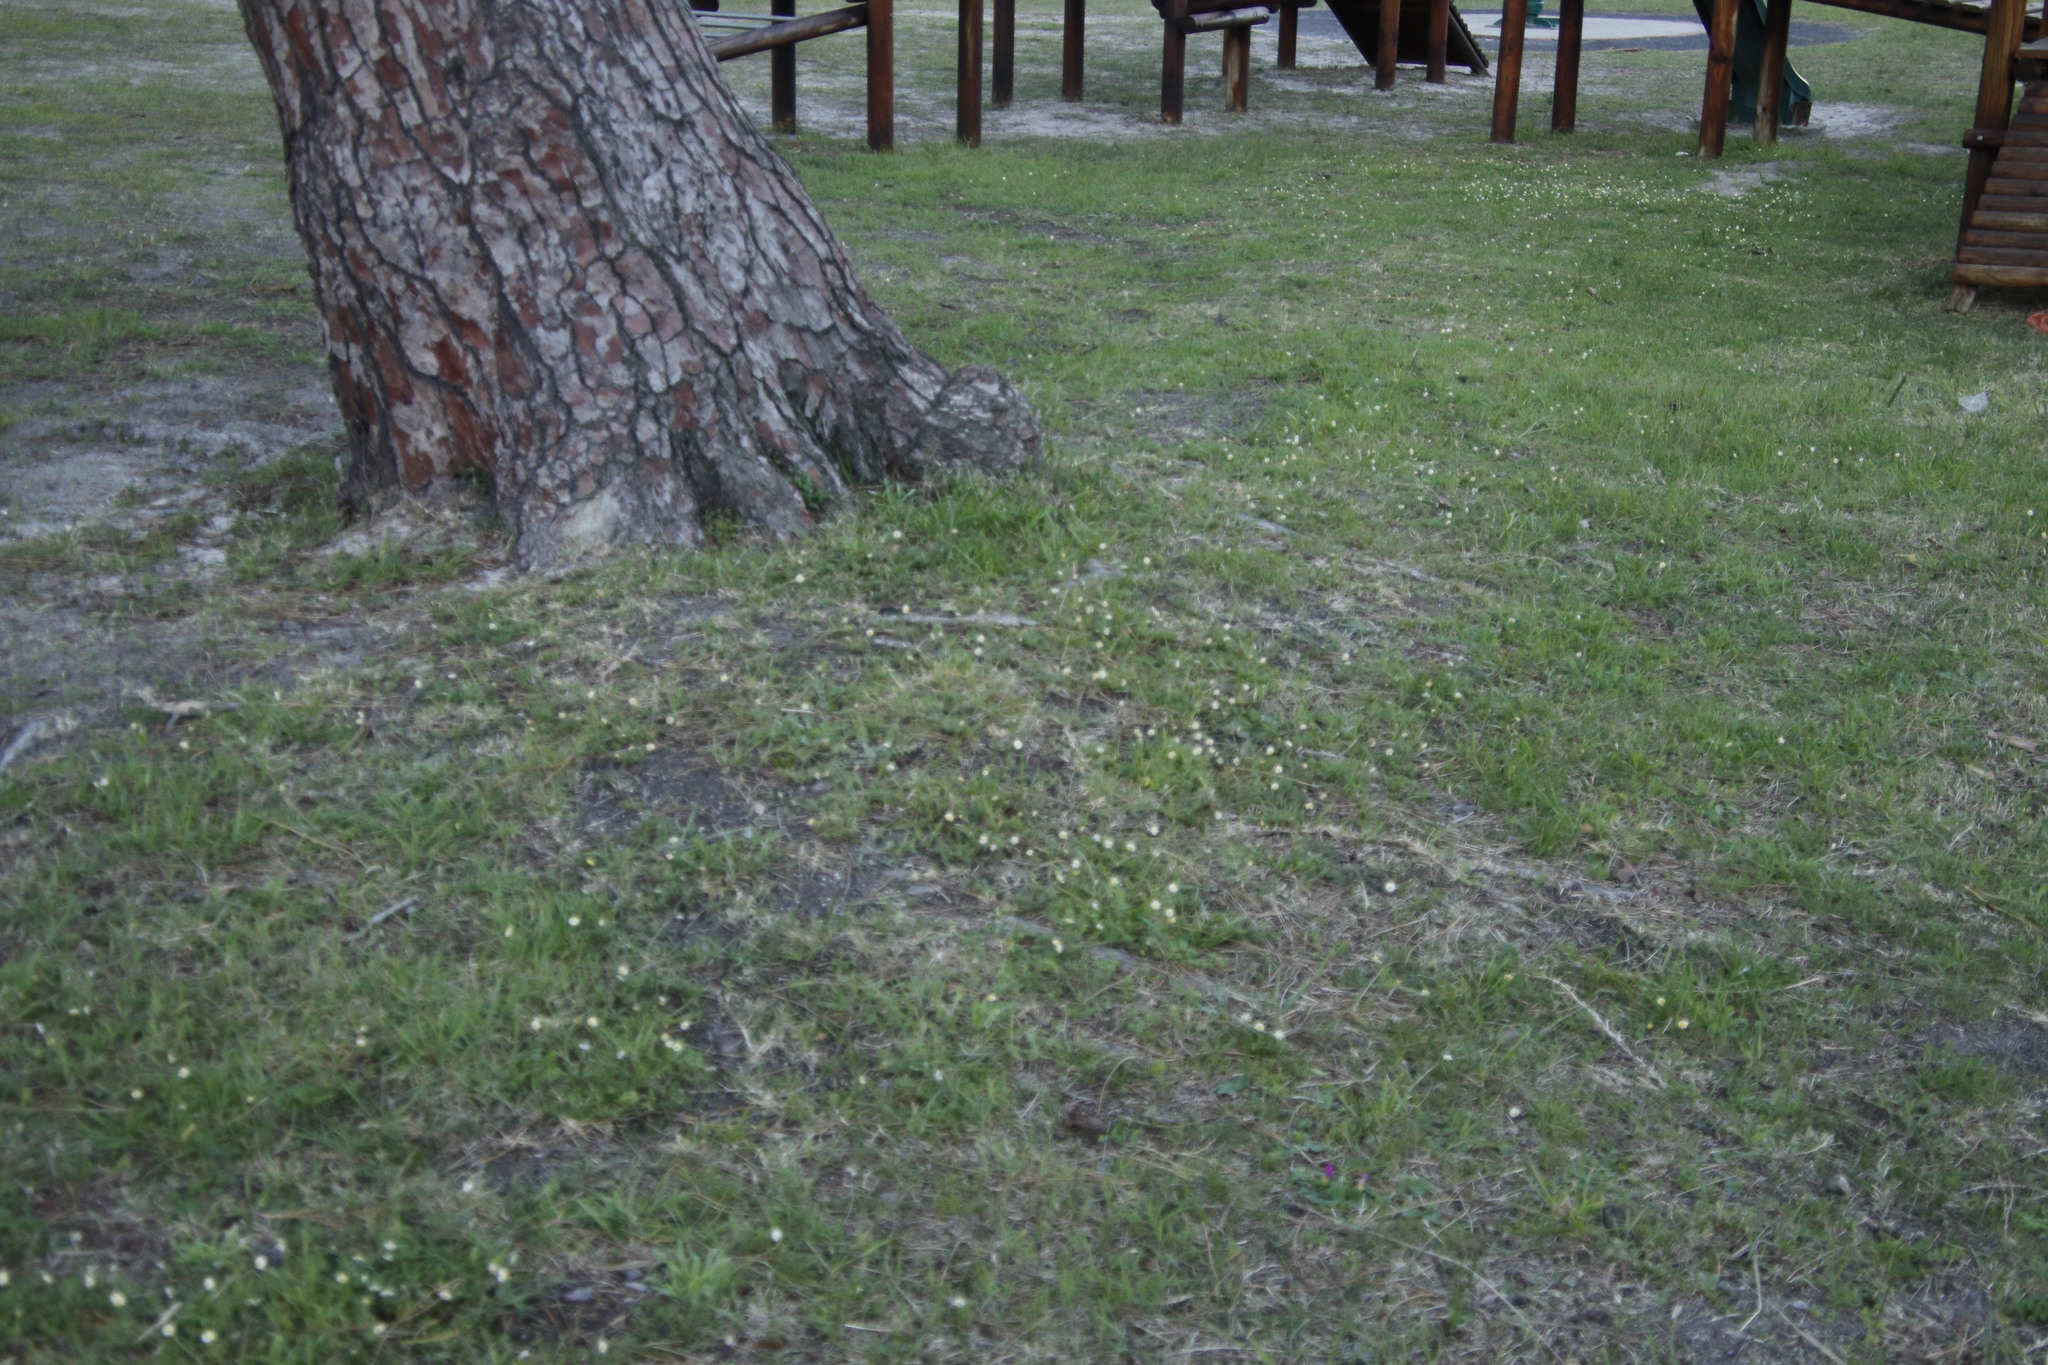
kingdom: Plantae
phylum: Tracheophyta
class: Magnoliopsida
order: Asterales
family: Asteraceae
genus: Cotula
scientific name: Cotula turbinata
